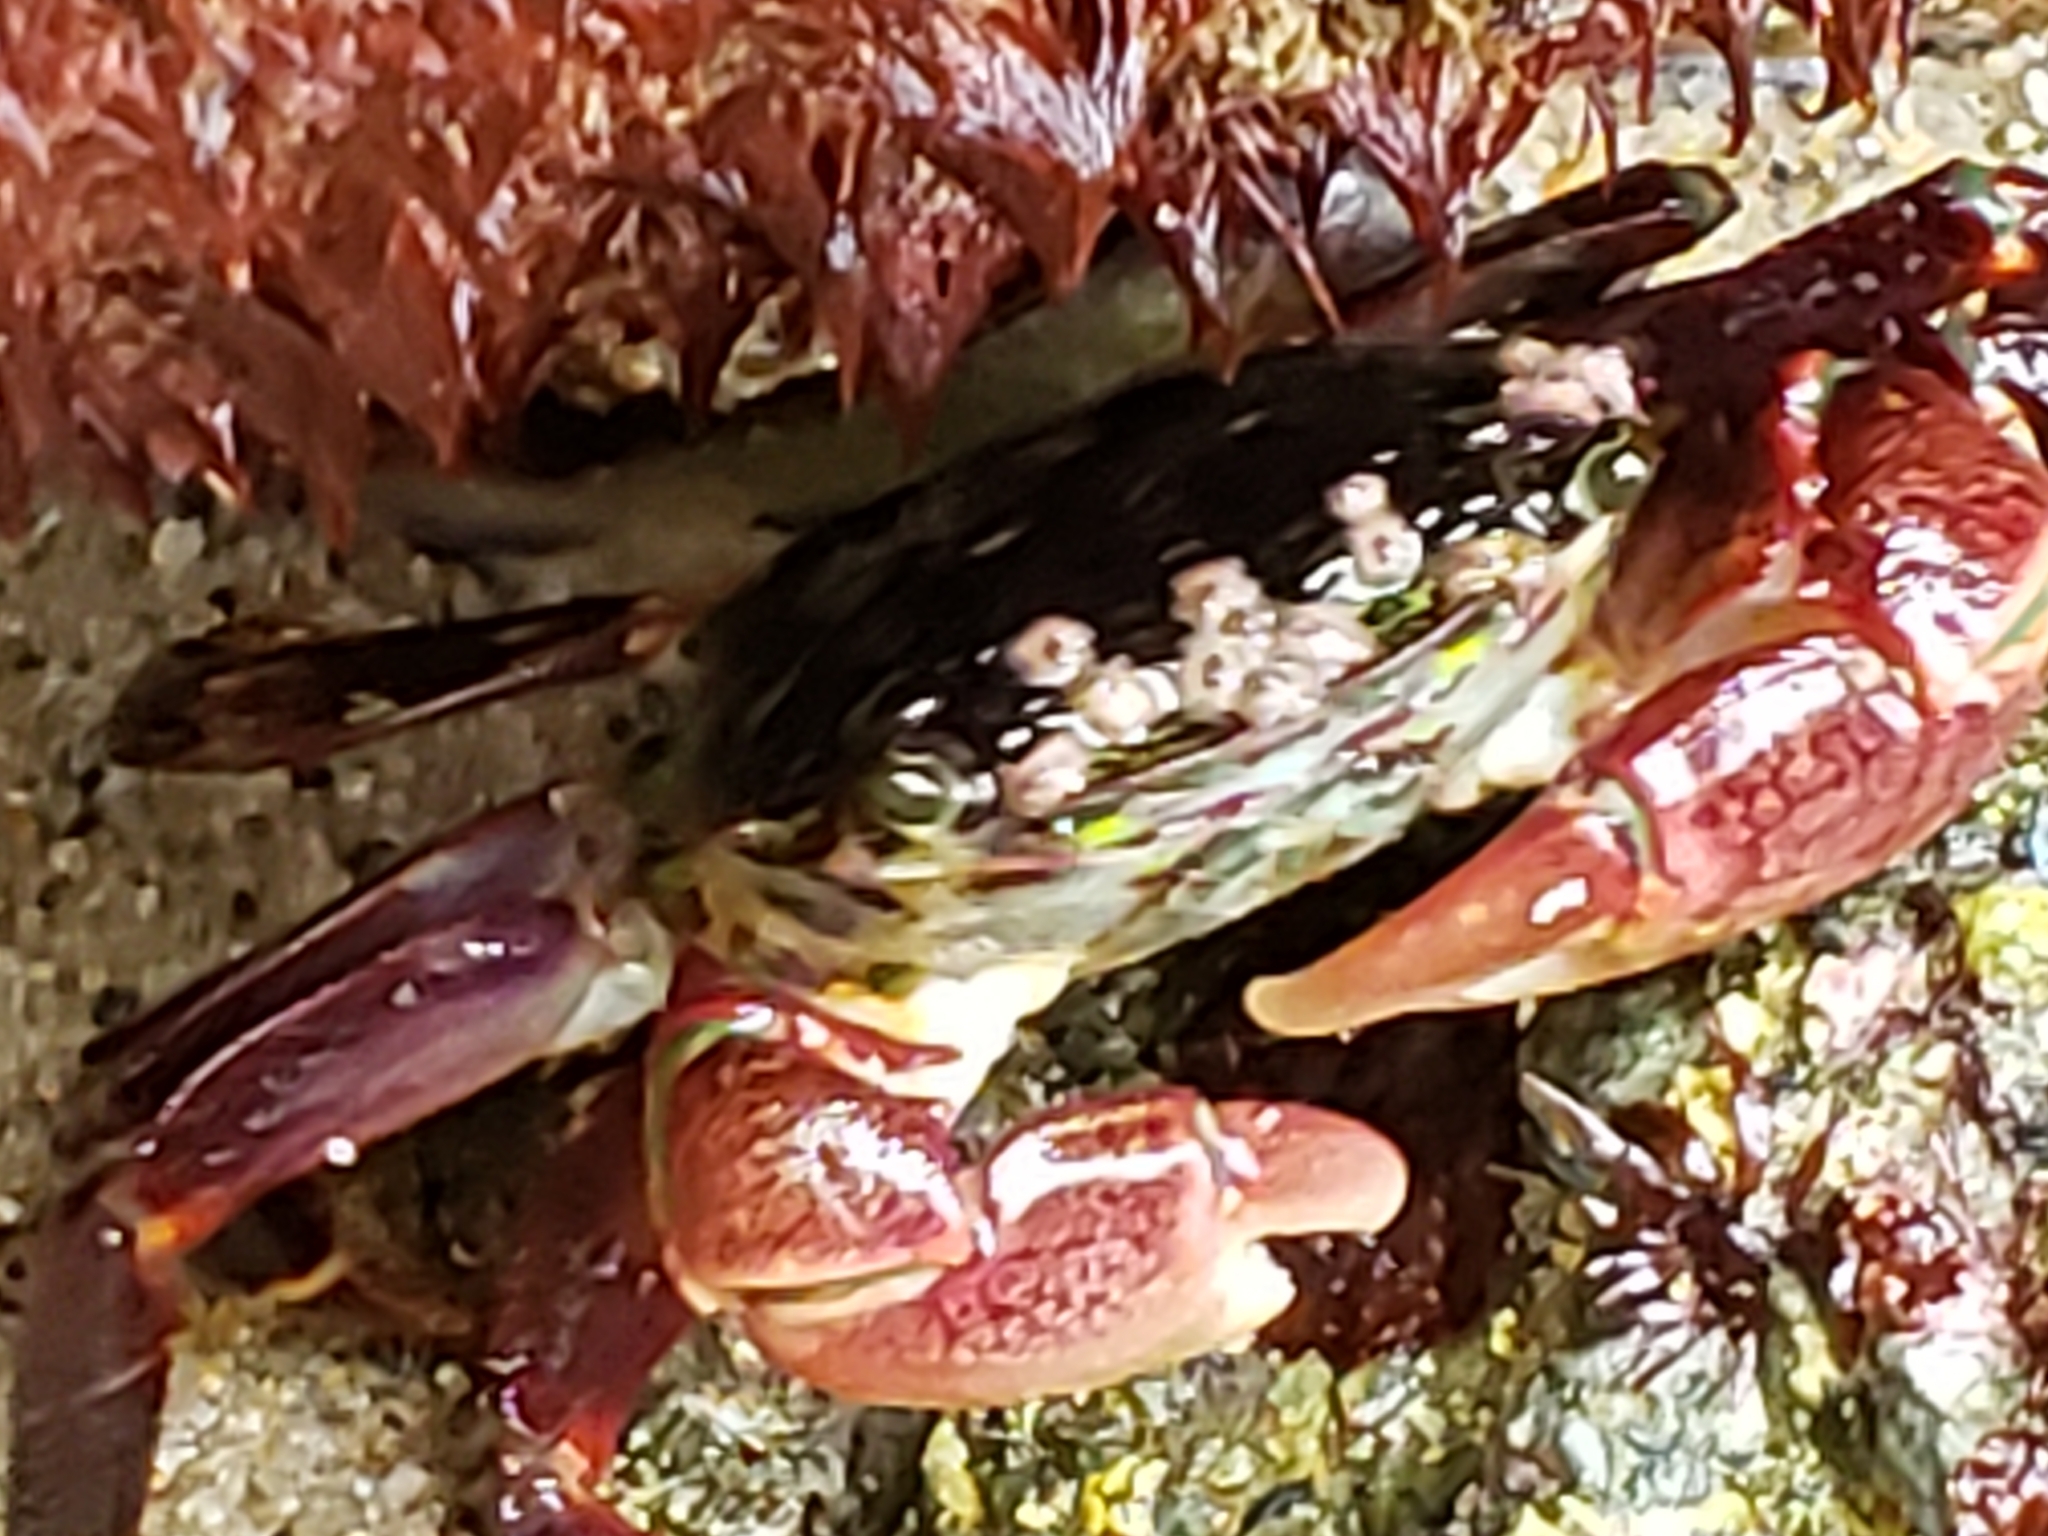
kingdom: Animalia
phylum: Arthropoda
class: Malacostraca
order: Decapoda
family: Grapsidae
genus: Pachygrapsus
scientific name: Pachygrapsus crassipes
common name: Striped shore crab
